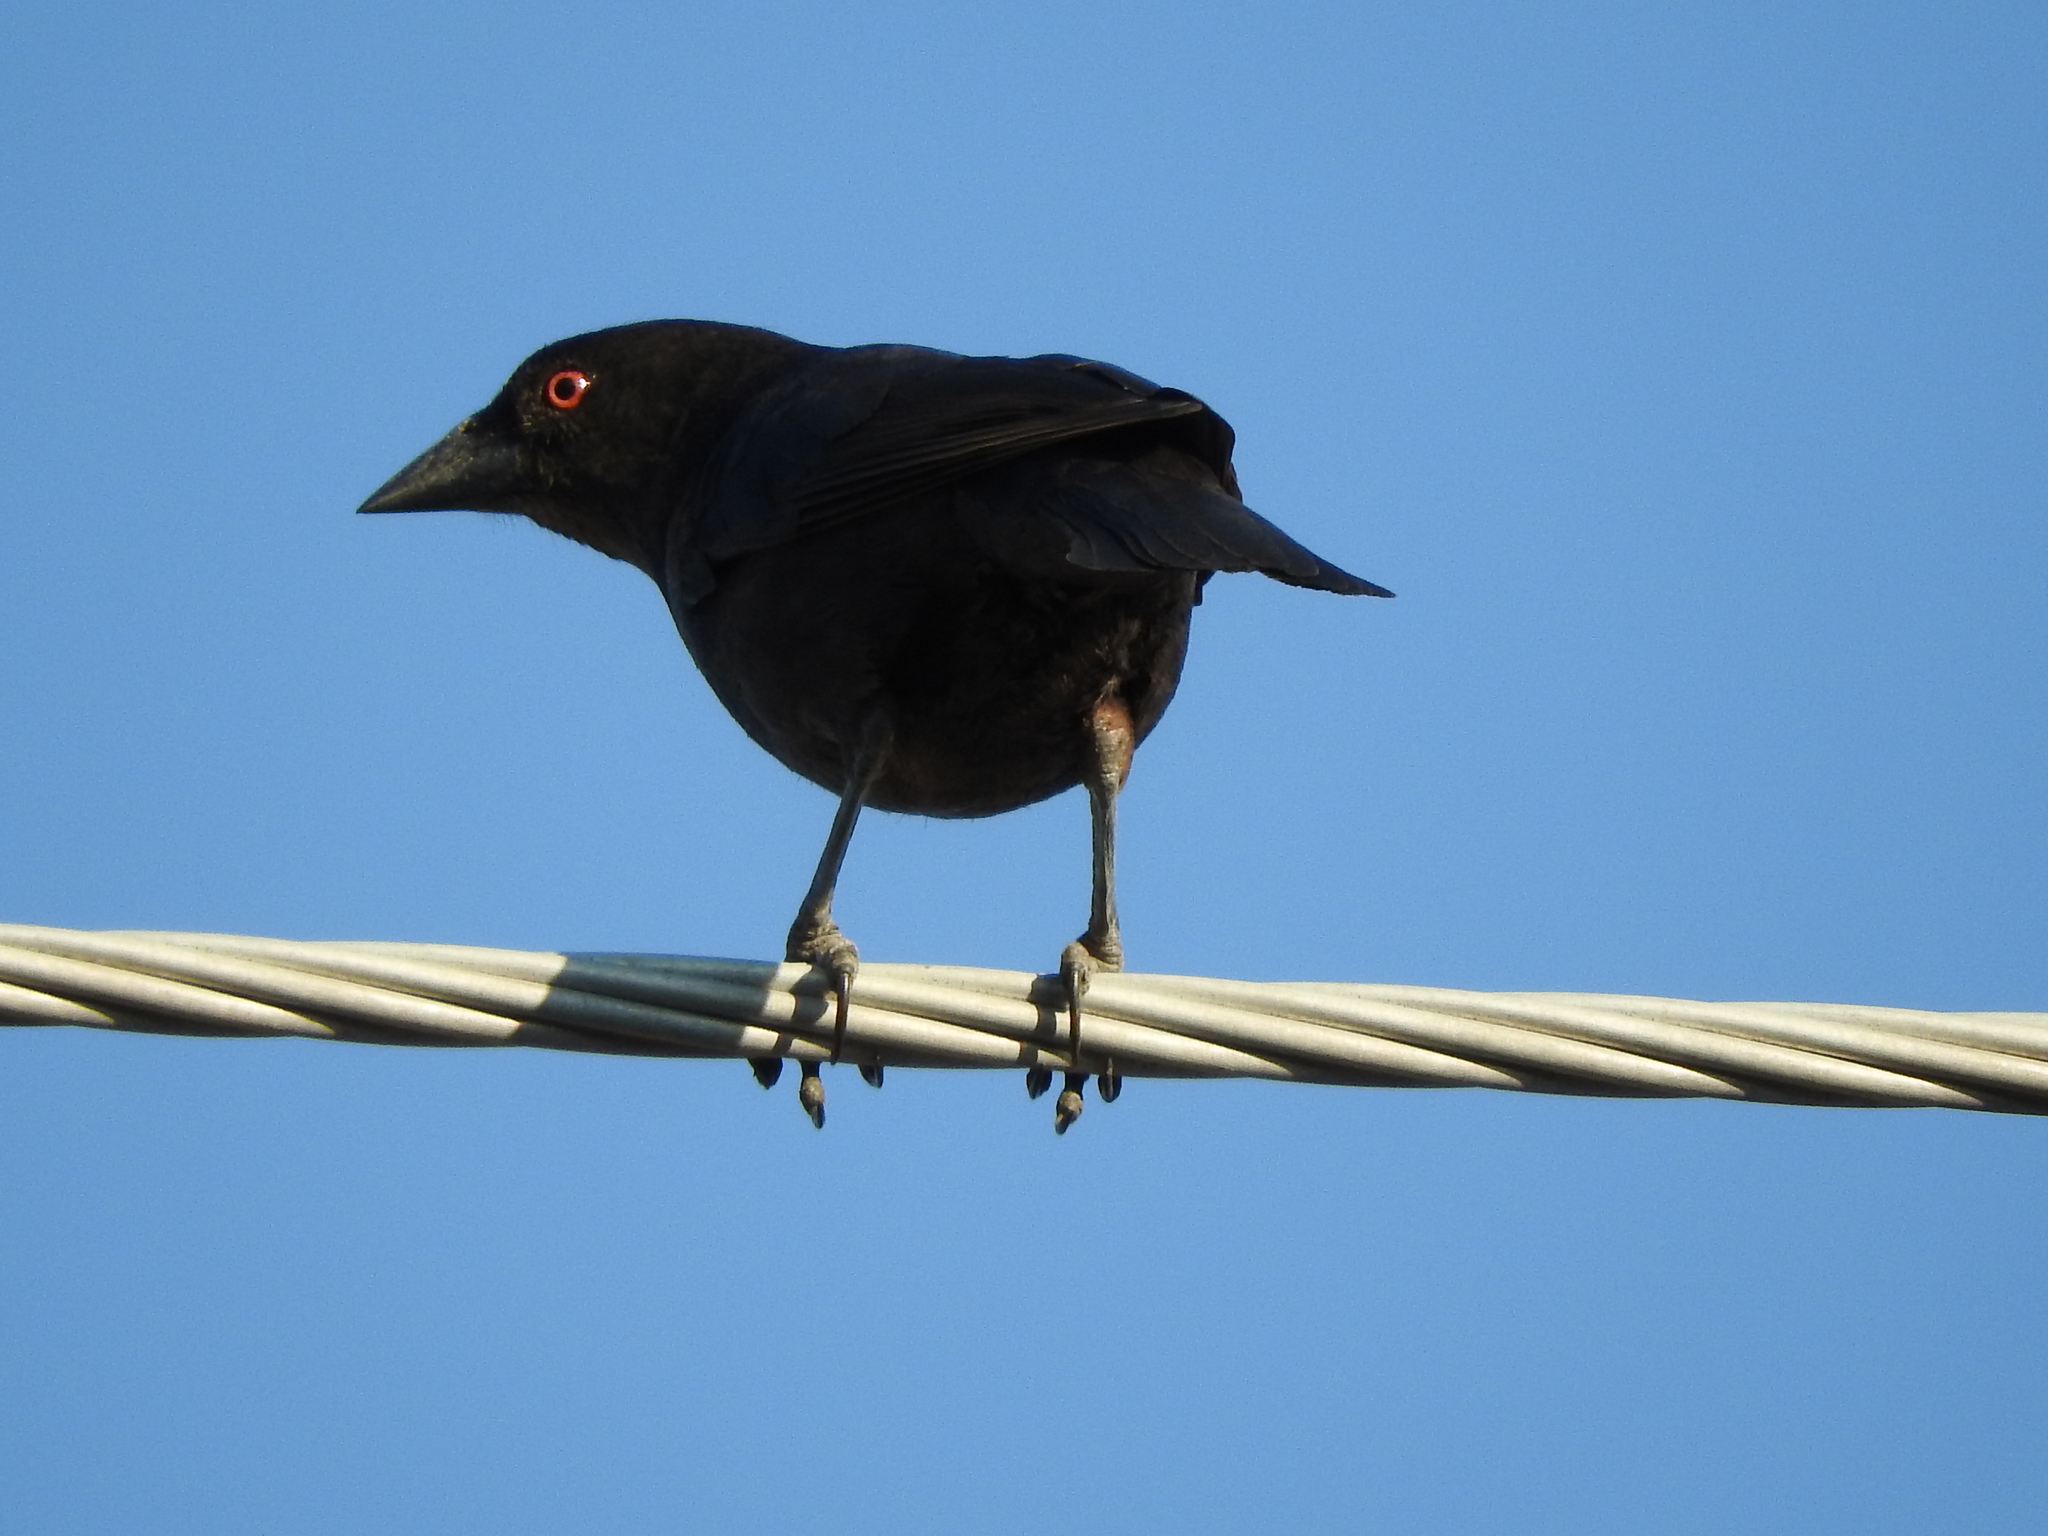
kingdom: Animalia
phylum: Chordata
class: Aves
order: Passeriformes
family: Icteridae
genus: Molothrus
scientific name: Molothrus aeneus
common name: Bronzed cowbird
